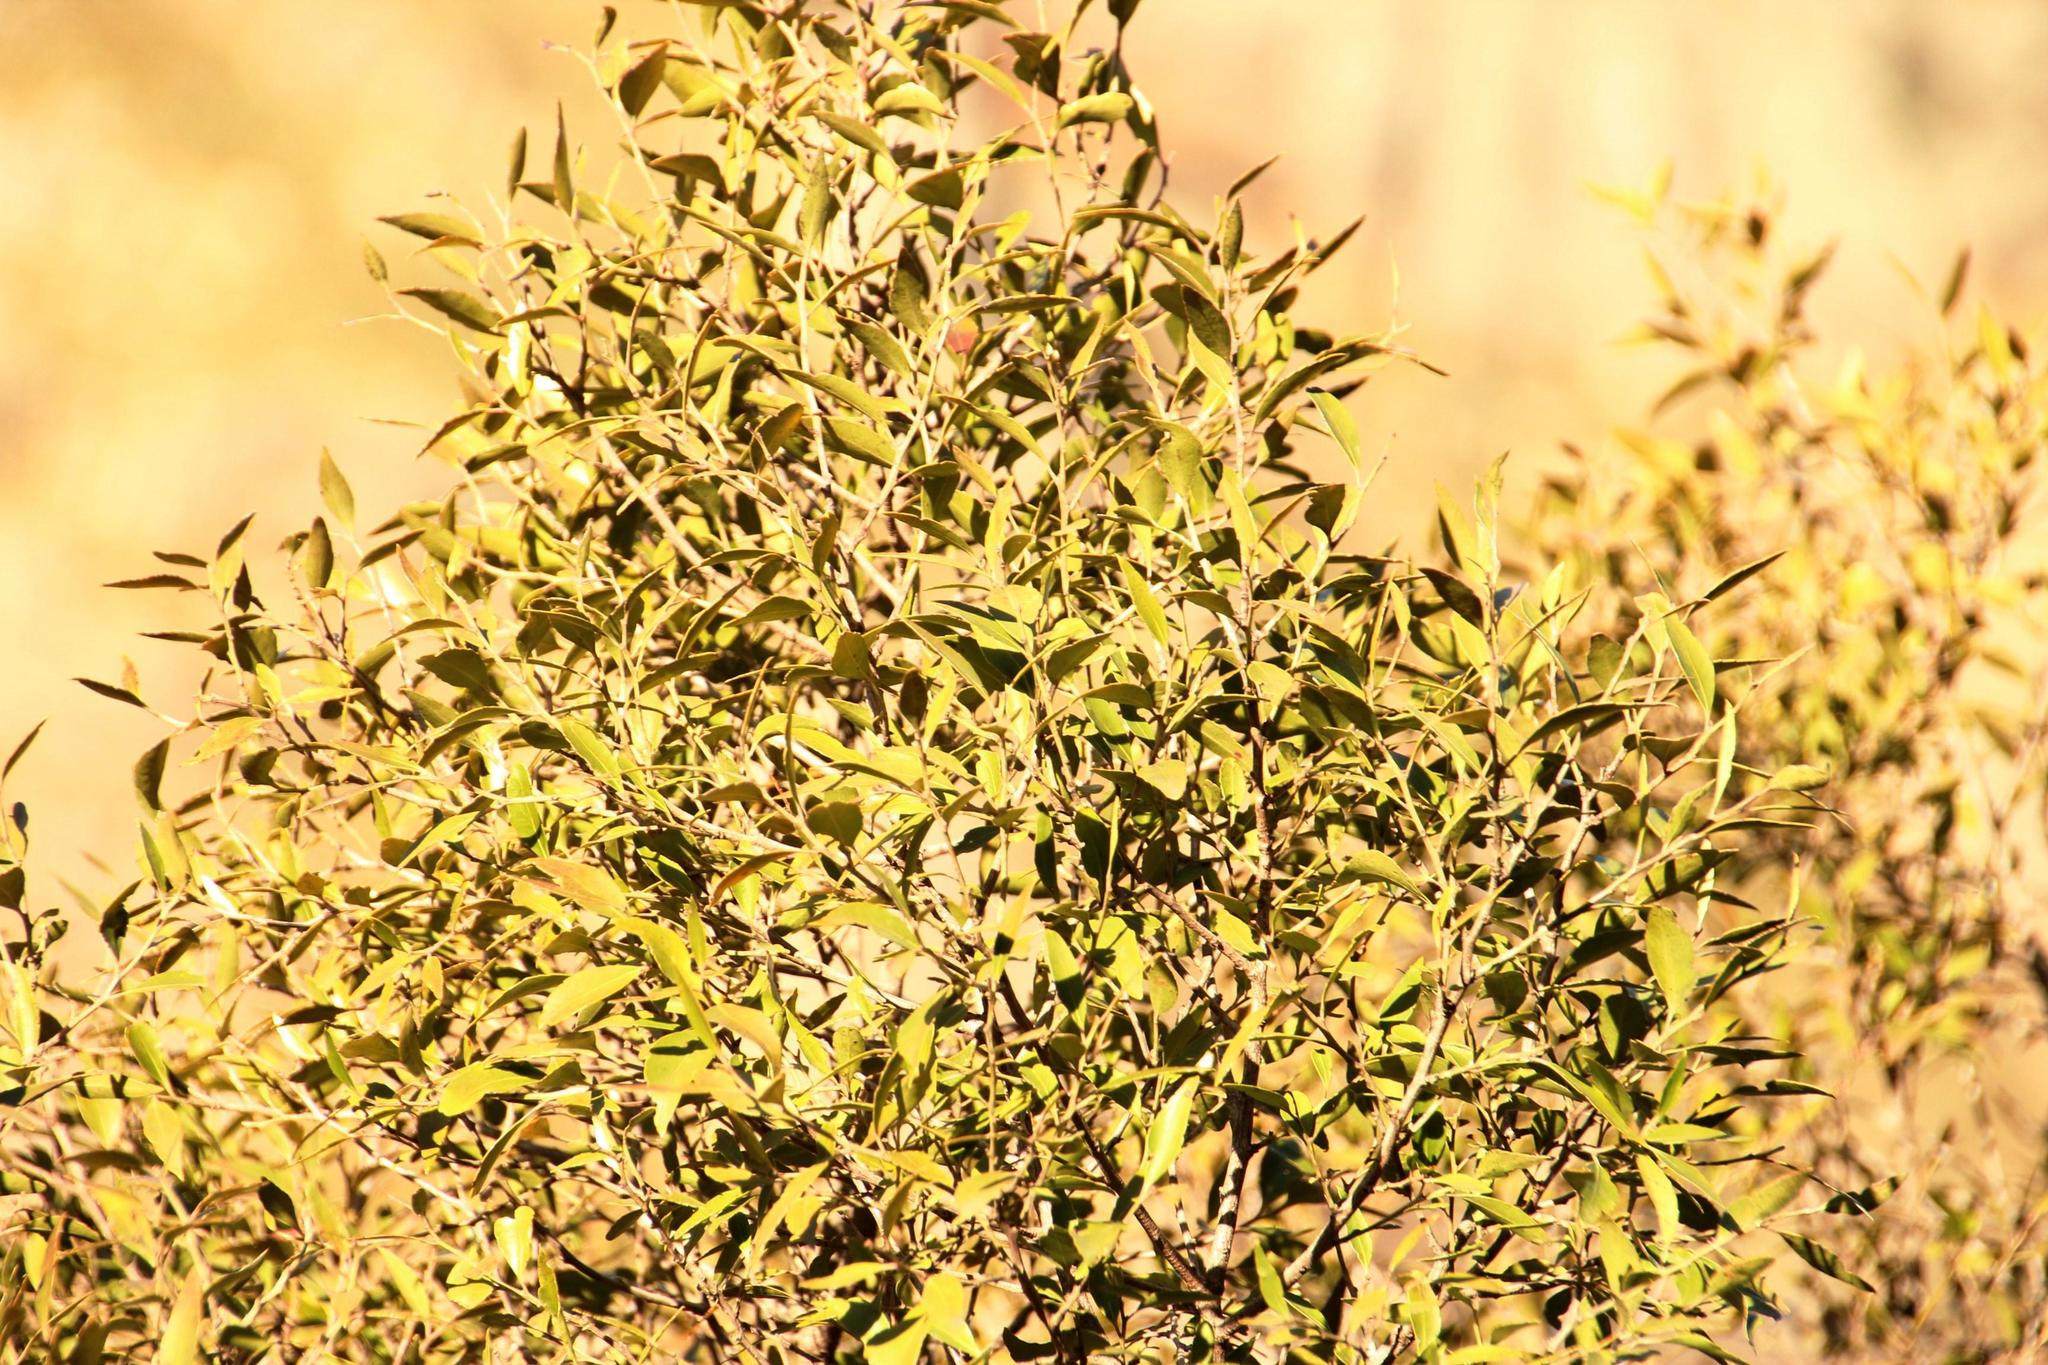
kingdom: Plantae
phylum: Tracheophyta
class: Magnoliopsida
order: Celastrales
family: Celastraceae
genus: Gymnosporia
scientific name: Gymnosporia acuminata
